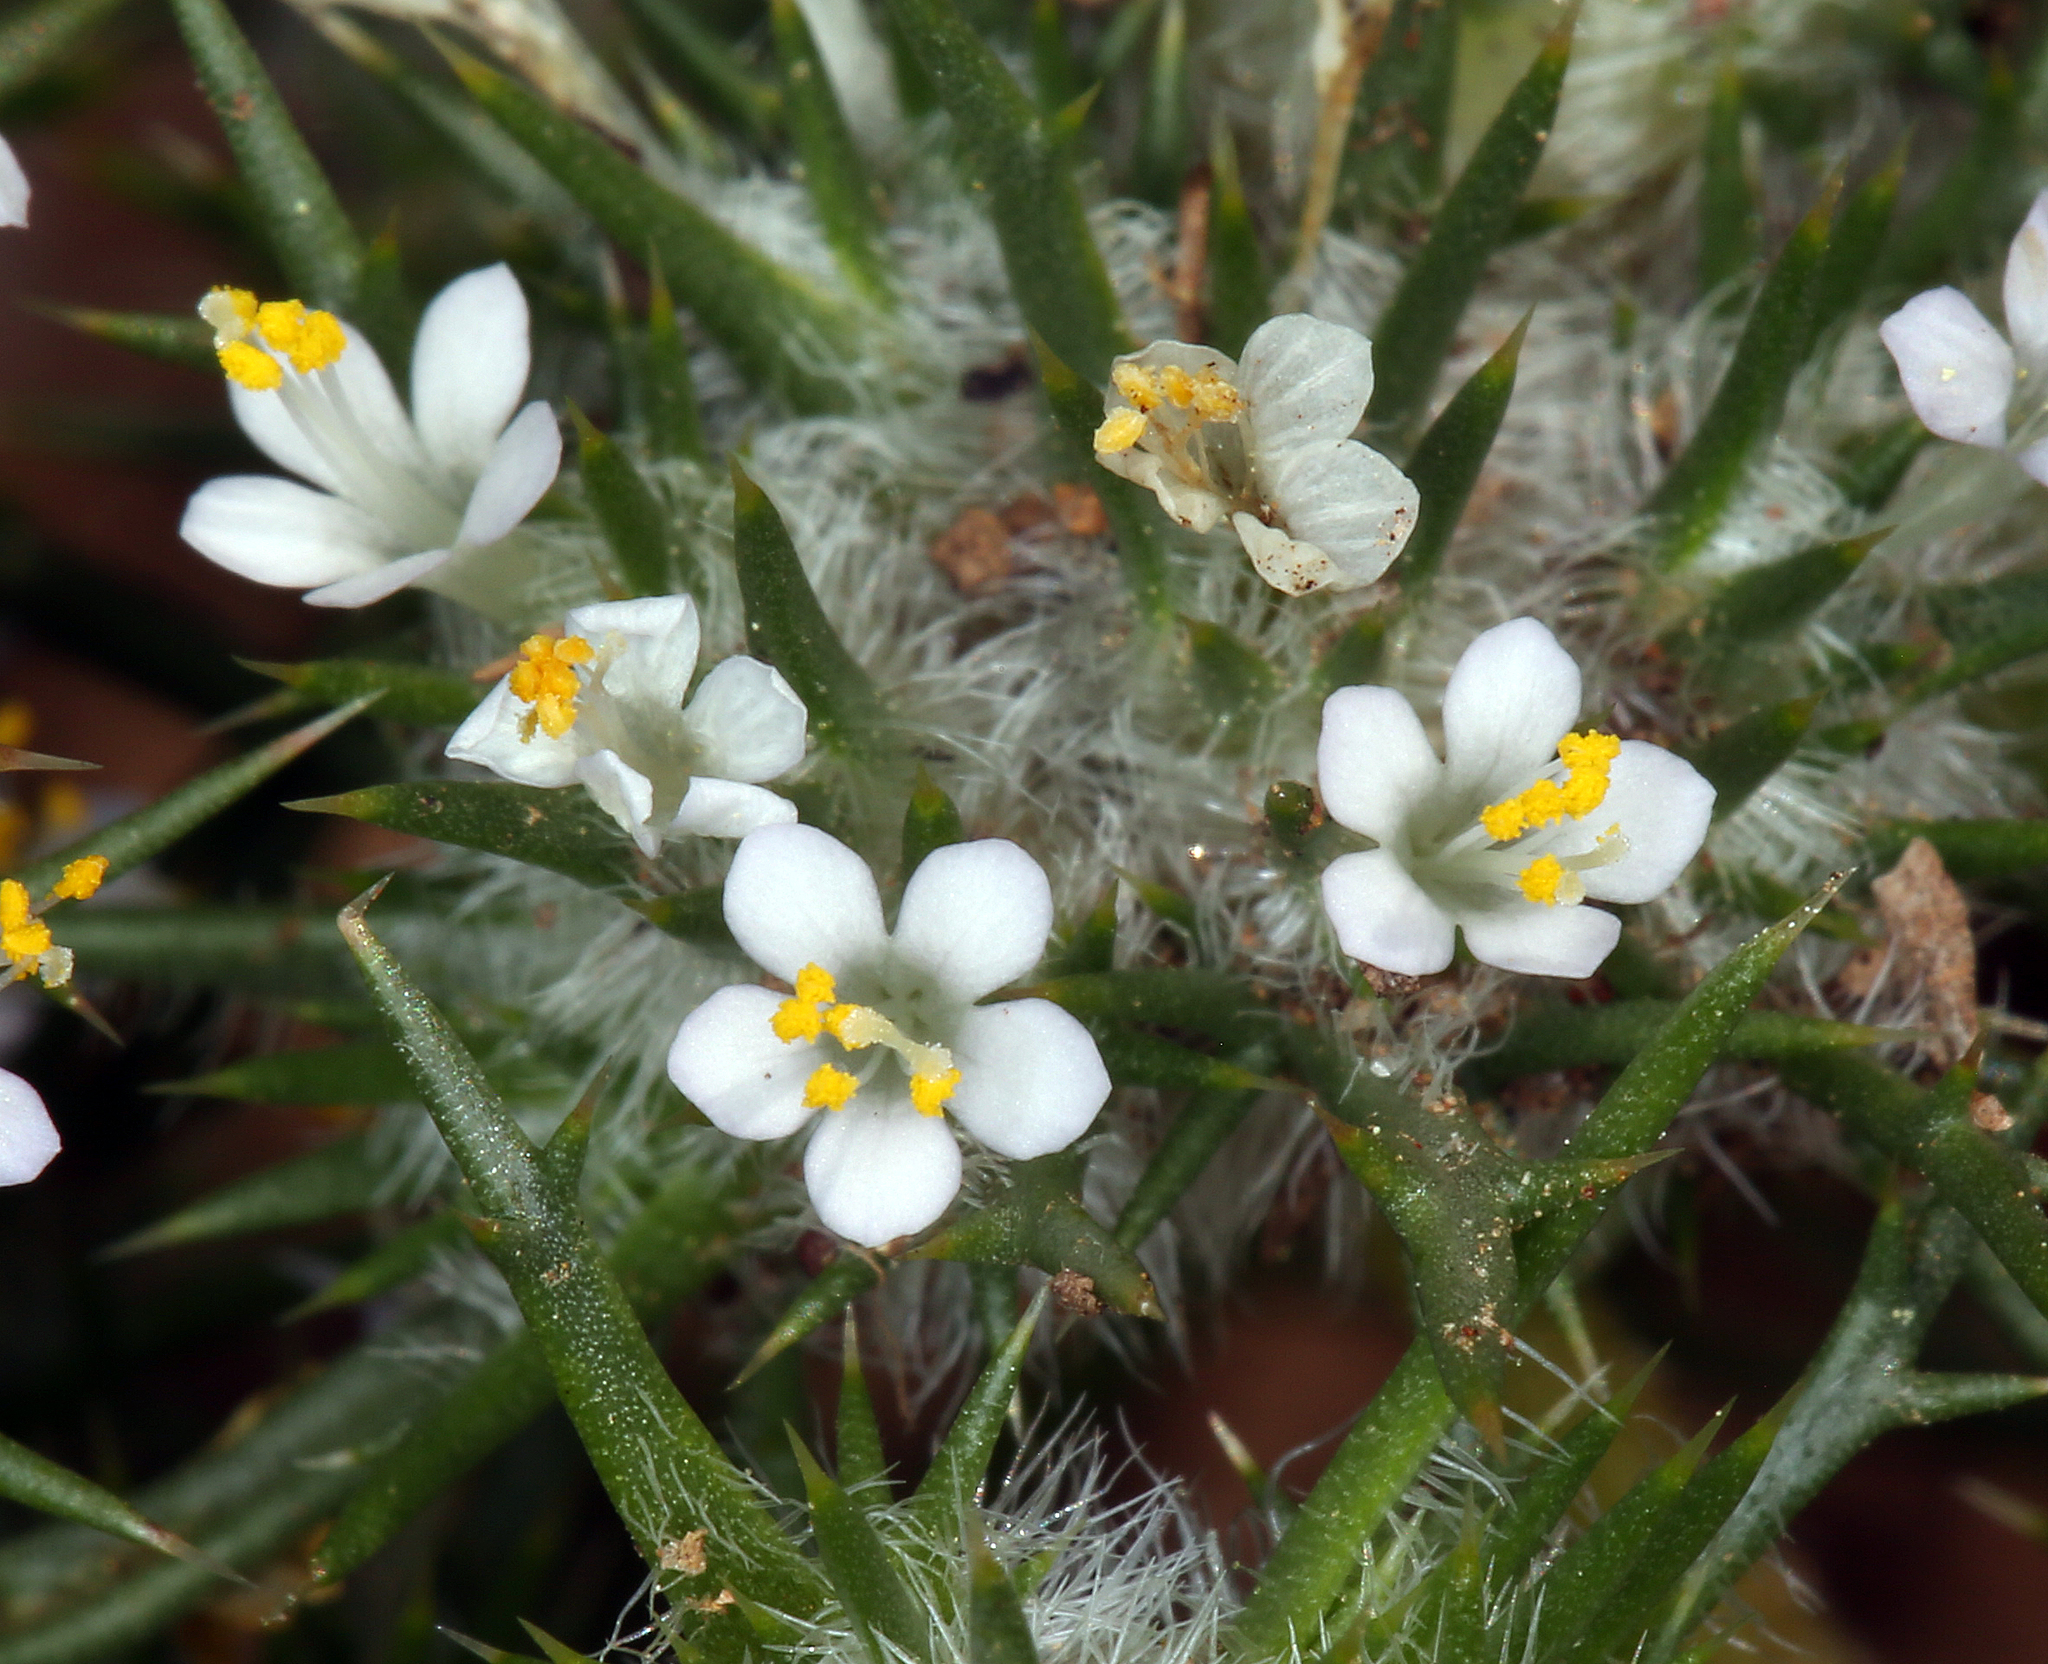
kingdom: Plantae
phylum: Tracheophyta
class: Magnoliopsida
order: Ericales
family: Polemoniaceae
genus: Navarretia
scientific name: Navarretia intertexta
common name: Needle-leaved navarretia
